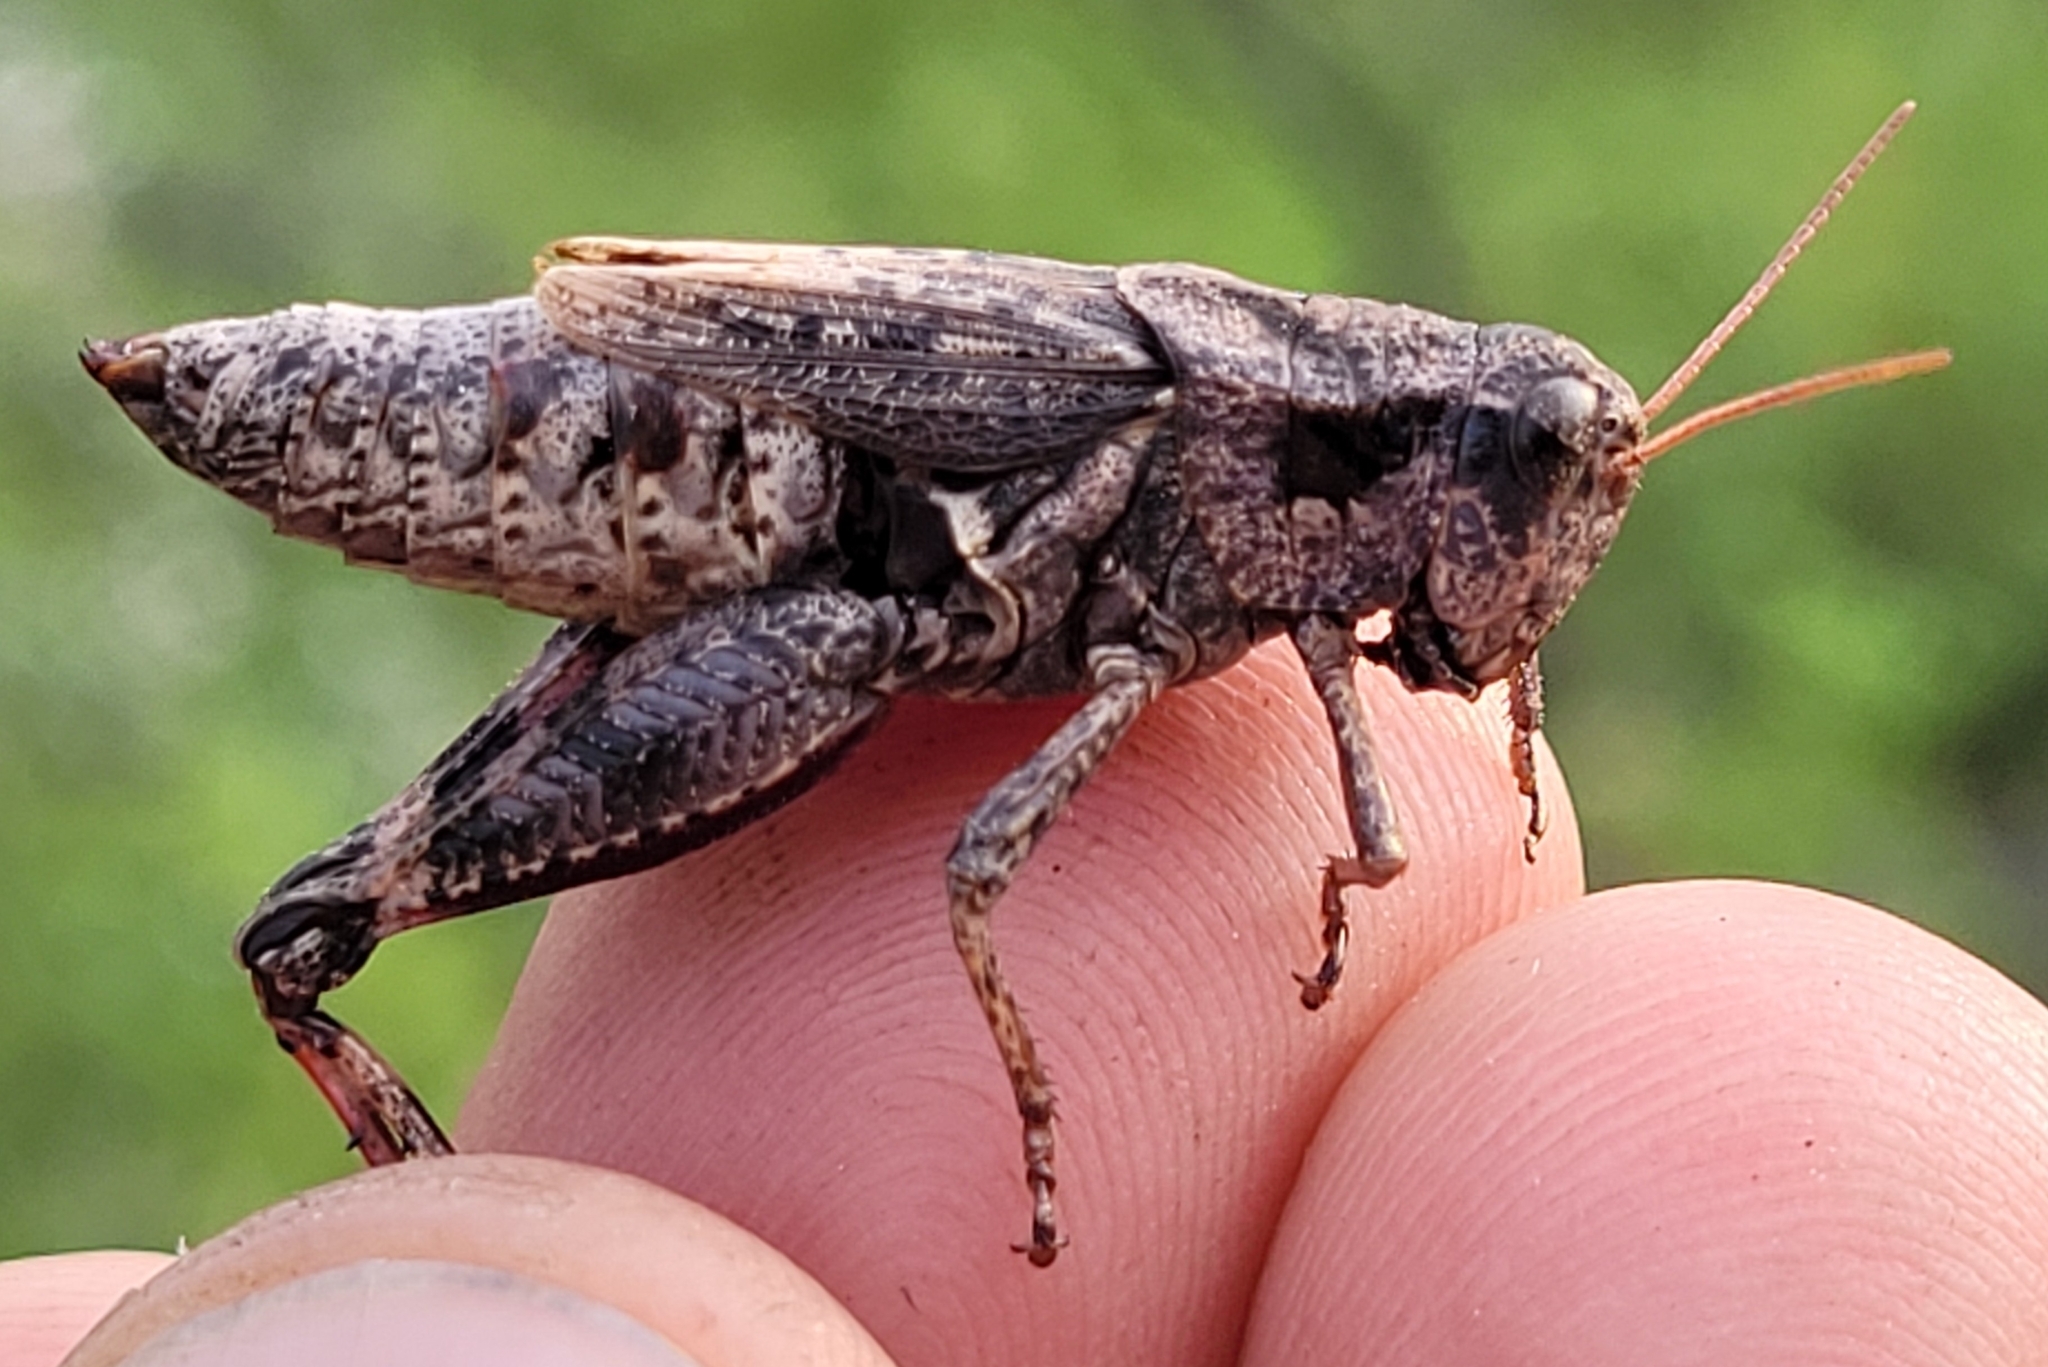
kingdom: Animalia
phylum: Arthropoda
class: Insecta
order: Orthoptera
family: Acrididae
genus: Melanoplus
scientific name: Melanoplus huroni
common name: Huron short-winged locust
